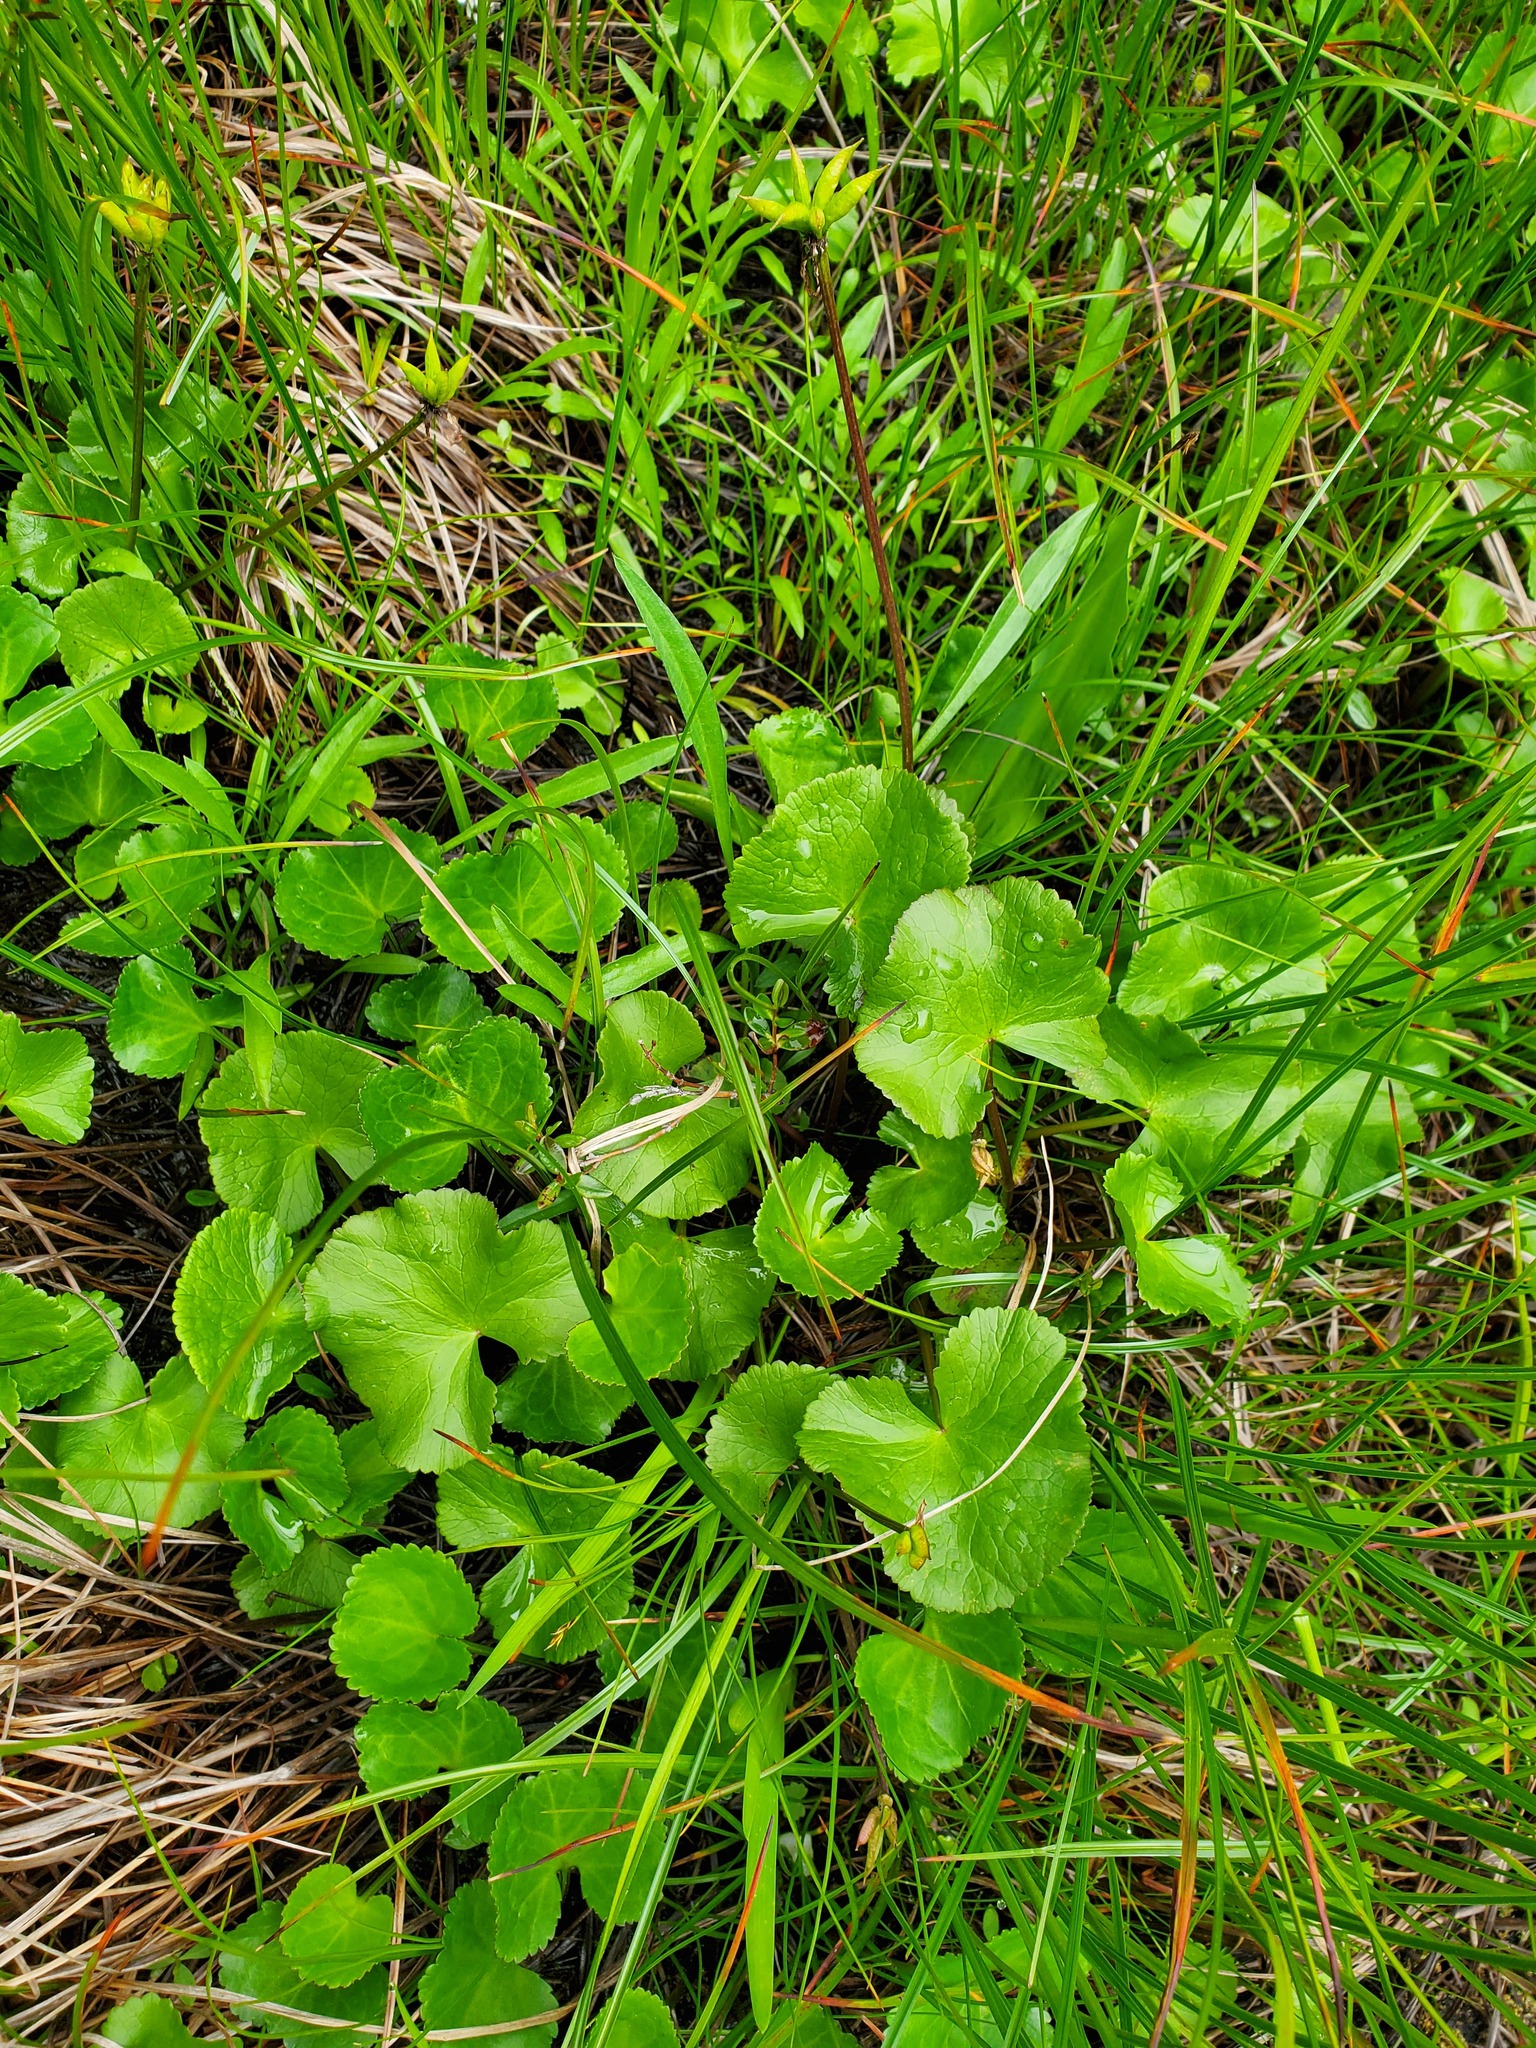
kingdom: Plantae
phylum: Tracheophyta
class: Magnoliopsida
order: Asterales
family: Menyanthaceae
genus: Nephrophyllidium
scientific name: Nephrophyllidium crista-galli
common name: Deer-cabbage
